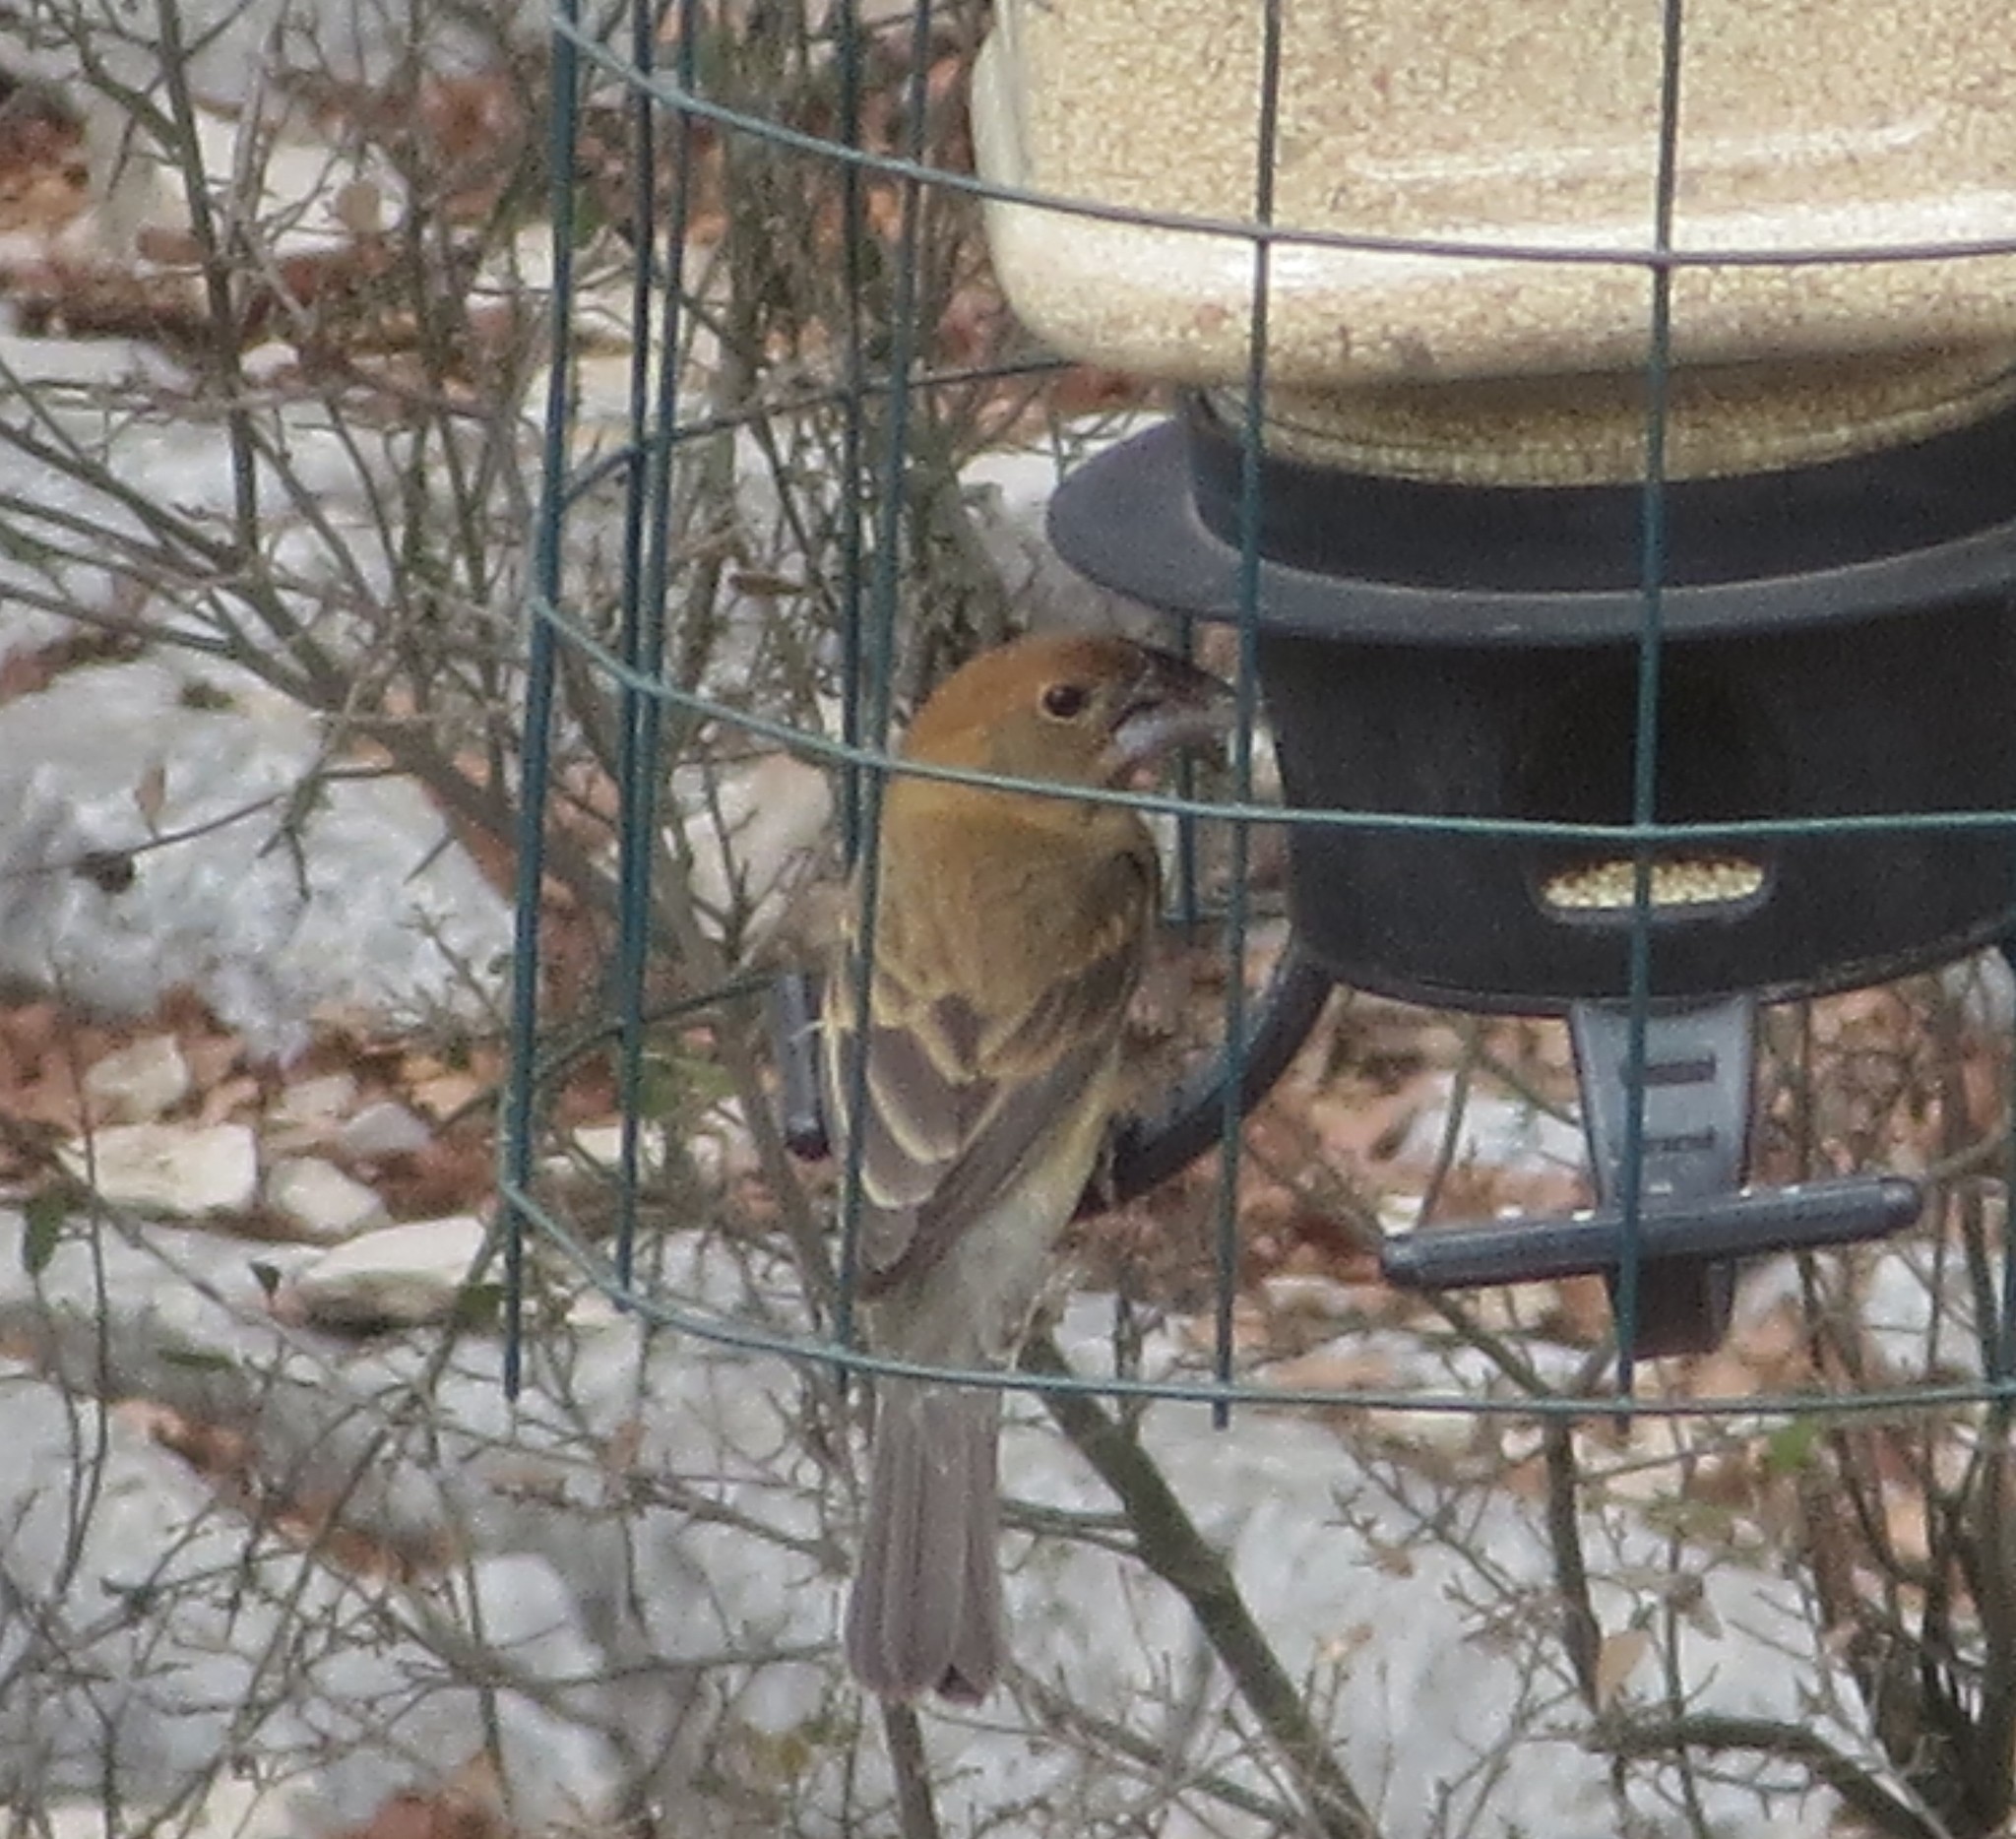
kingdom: Animalia
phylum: Chordata
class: Aves
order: Passeriformes
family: Cardinalidae
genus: Passerina
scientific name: Passerina caerulea
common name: Blue grosbeak
